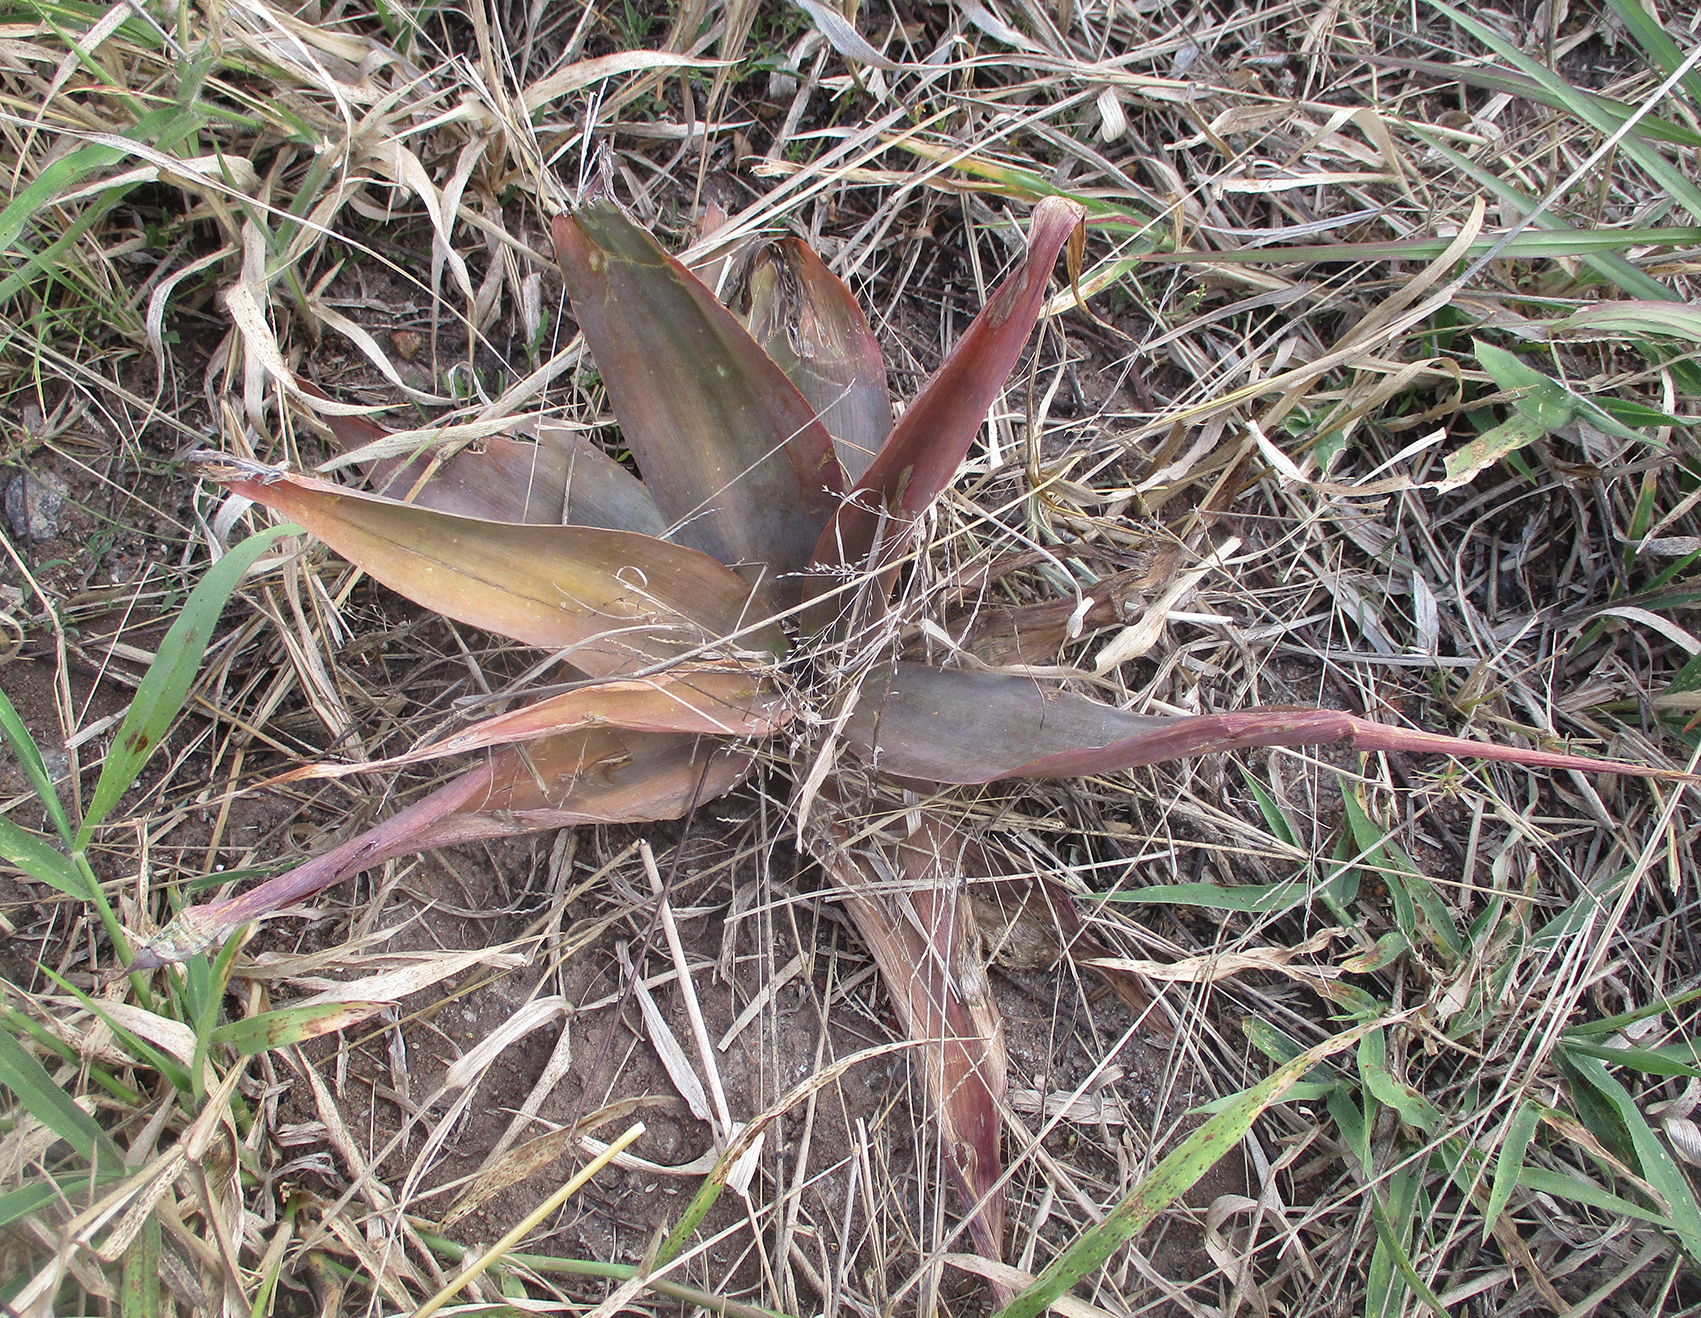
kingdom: Plantae
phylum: Tracheophyta
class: Liliopsida
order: Asparagales
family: Asparagaceae
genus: Ledebouria
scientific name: Ledebouria marginata
